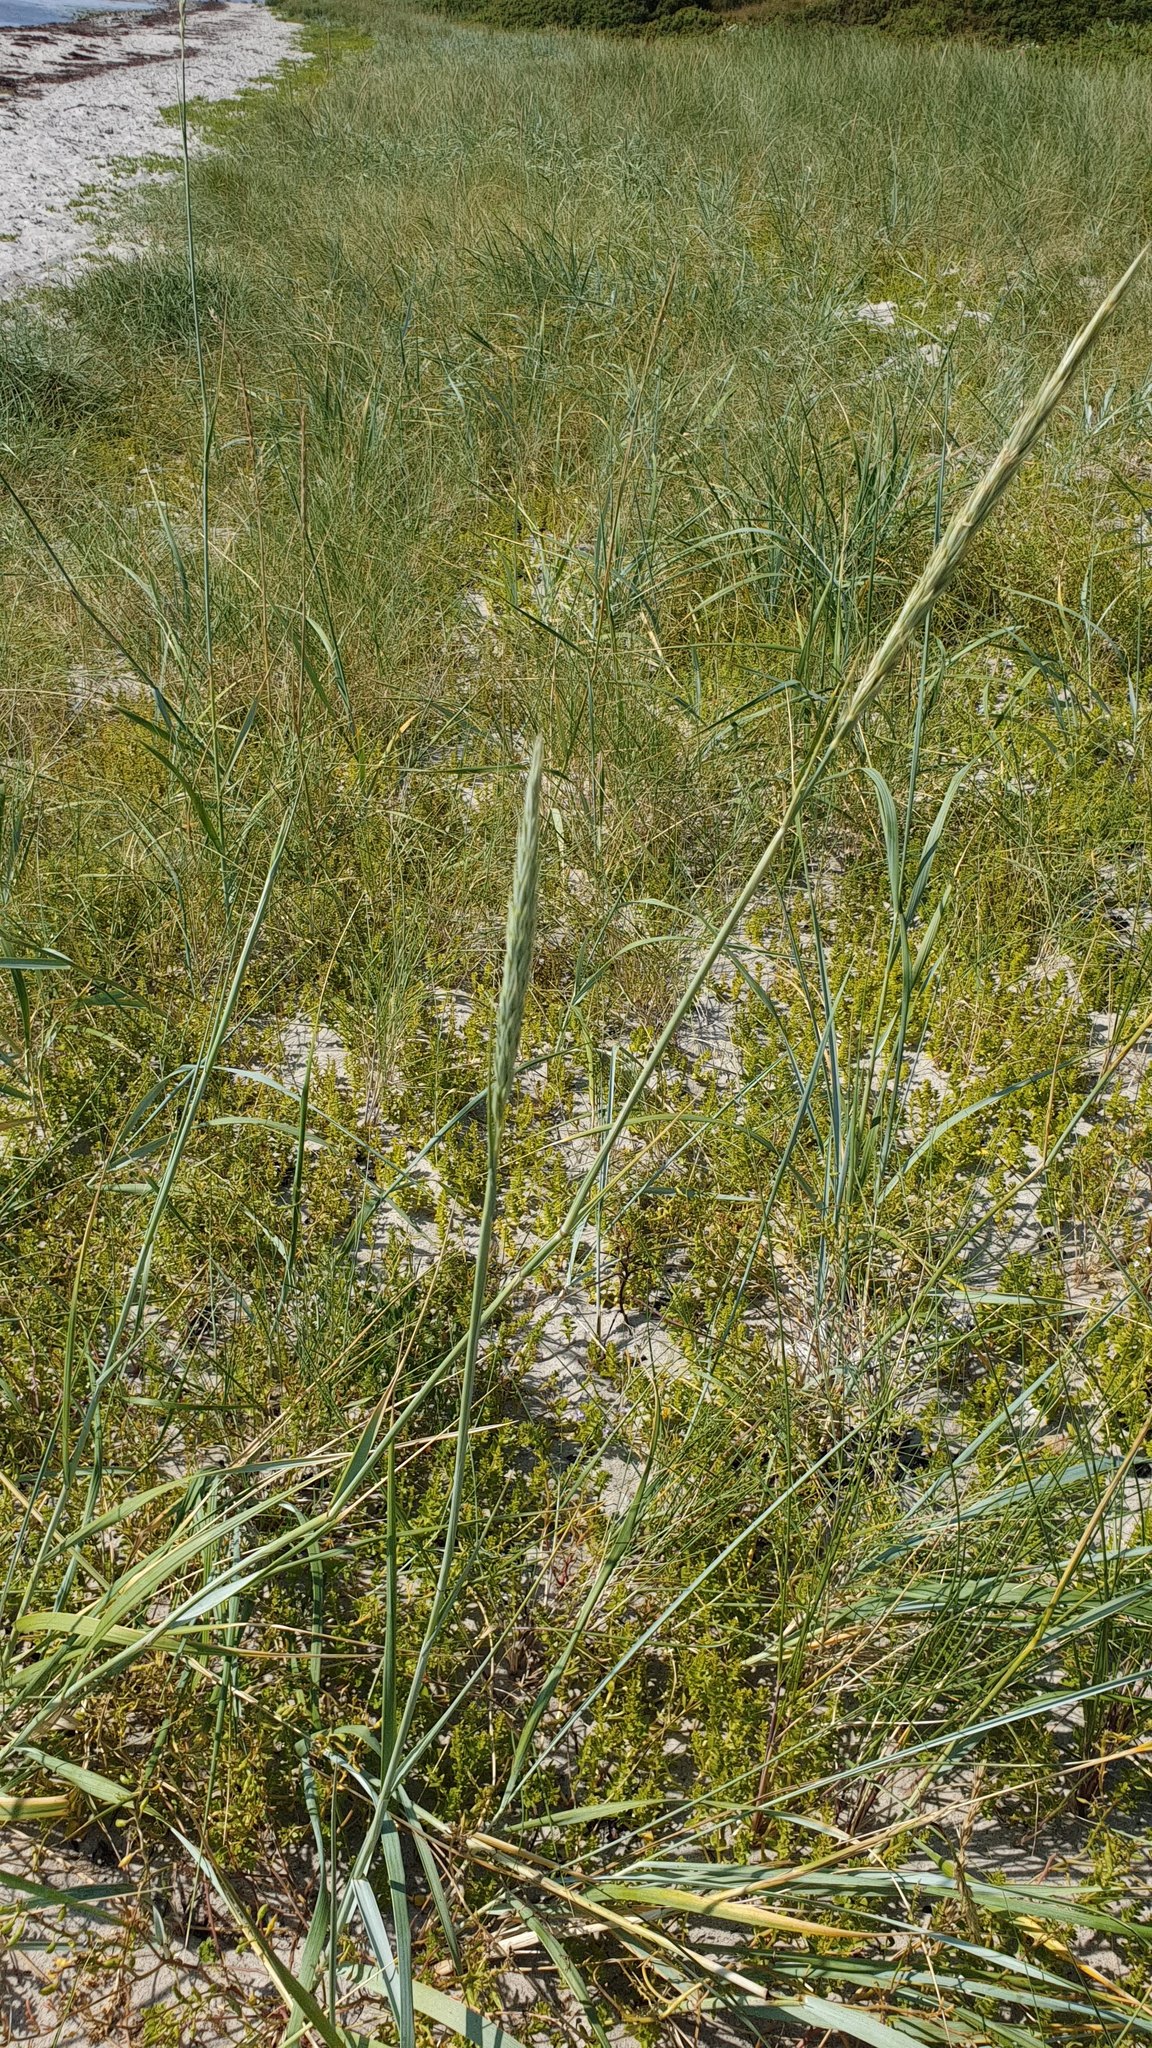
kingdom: Plantae
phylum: Tracheophyta
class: Liliopsida
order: Poales
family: Poaceae
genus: Leymus
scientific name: Leymus arenarius
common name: Lyme-grass
